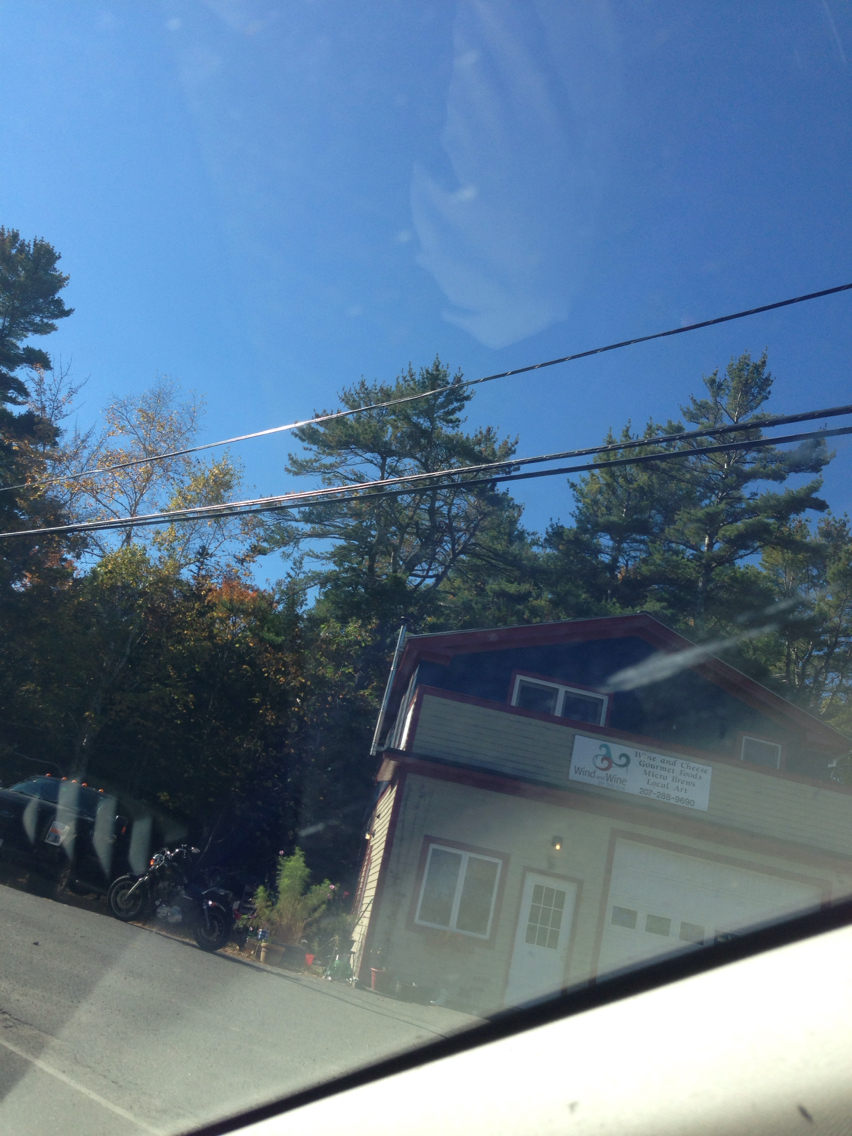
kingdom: Plantae
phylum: Tracheophyta
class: Pinopsida
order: Pinales
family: Pinaceae
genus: Pinus
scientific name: Pinus strobus
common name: Weymouth pine
